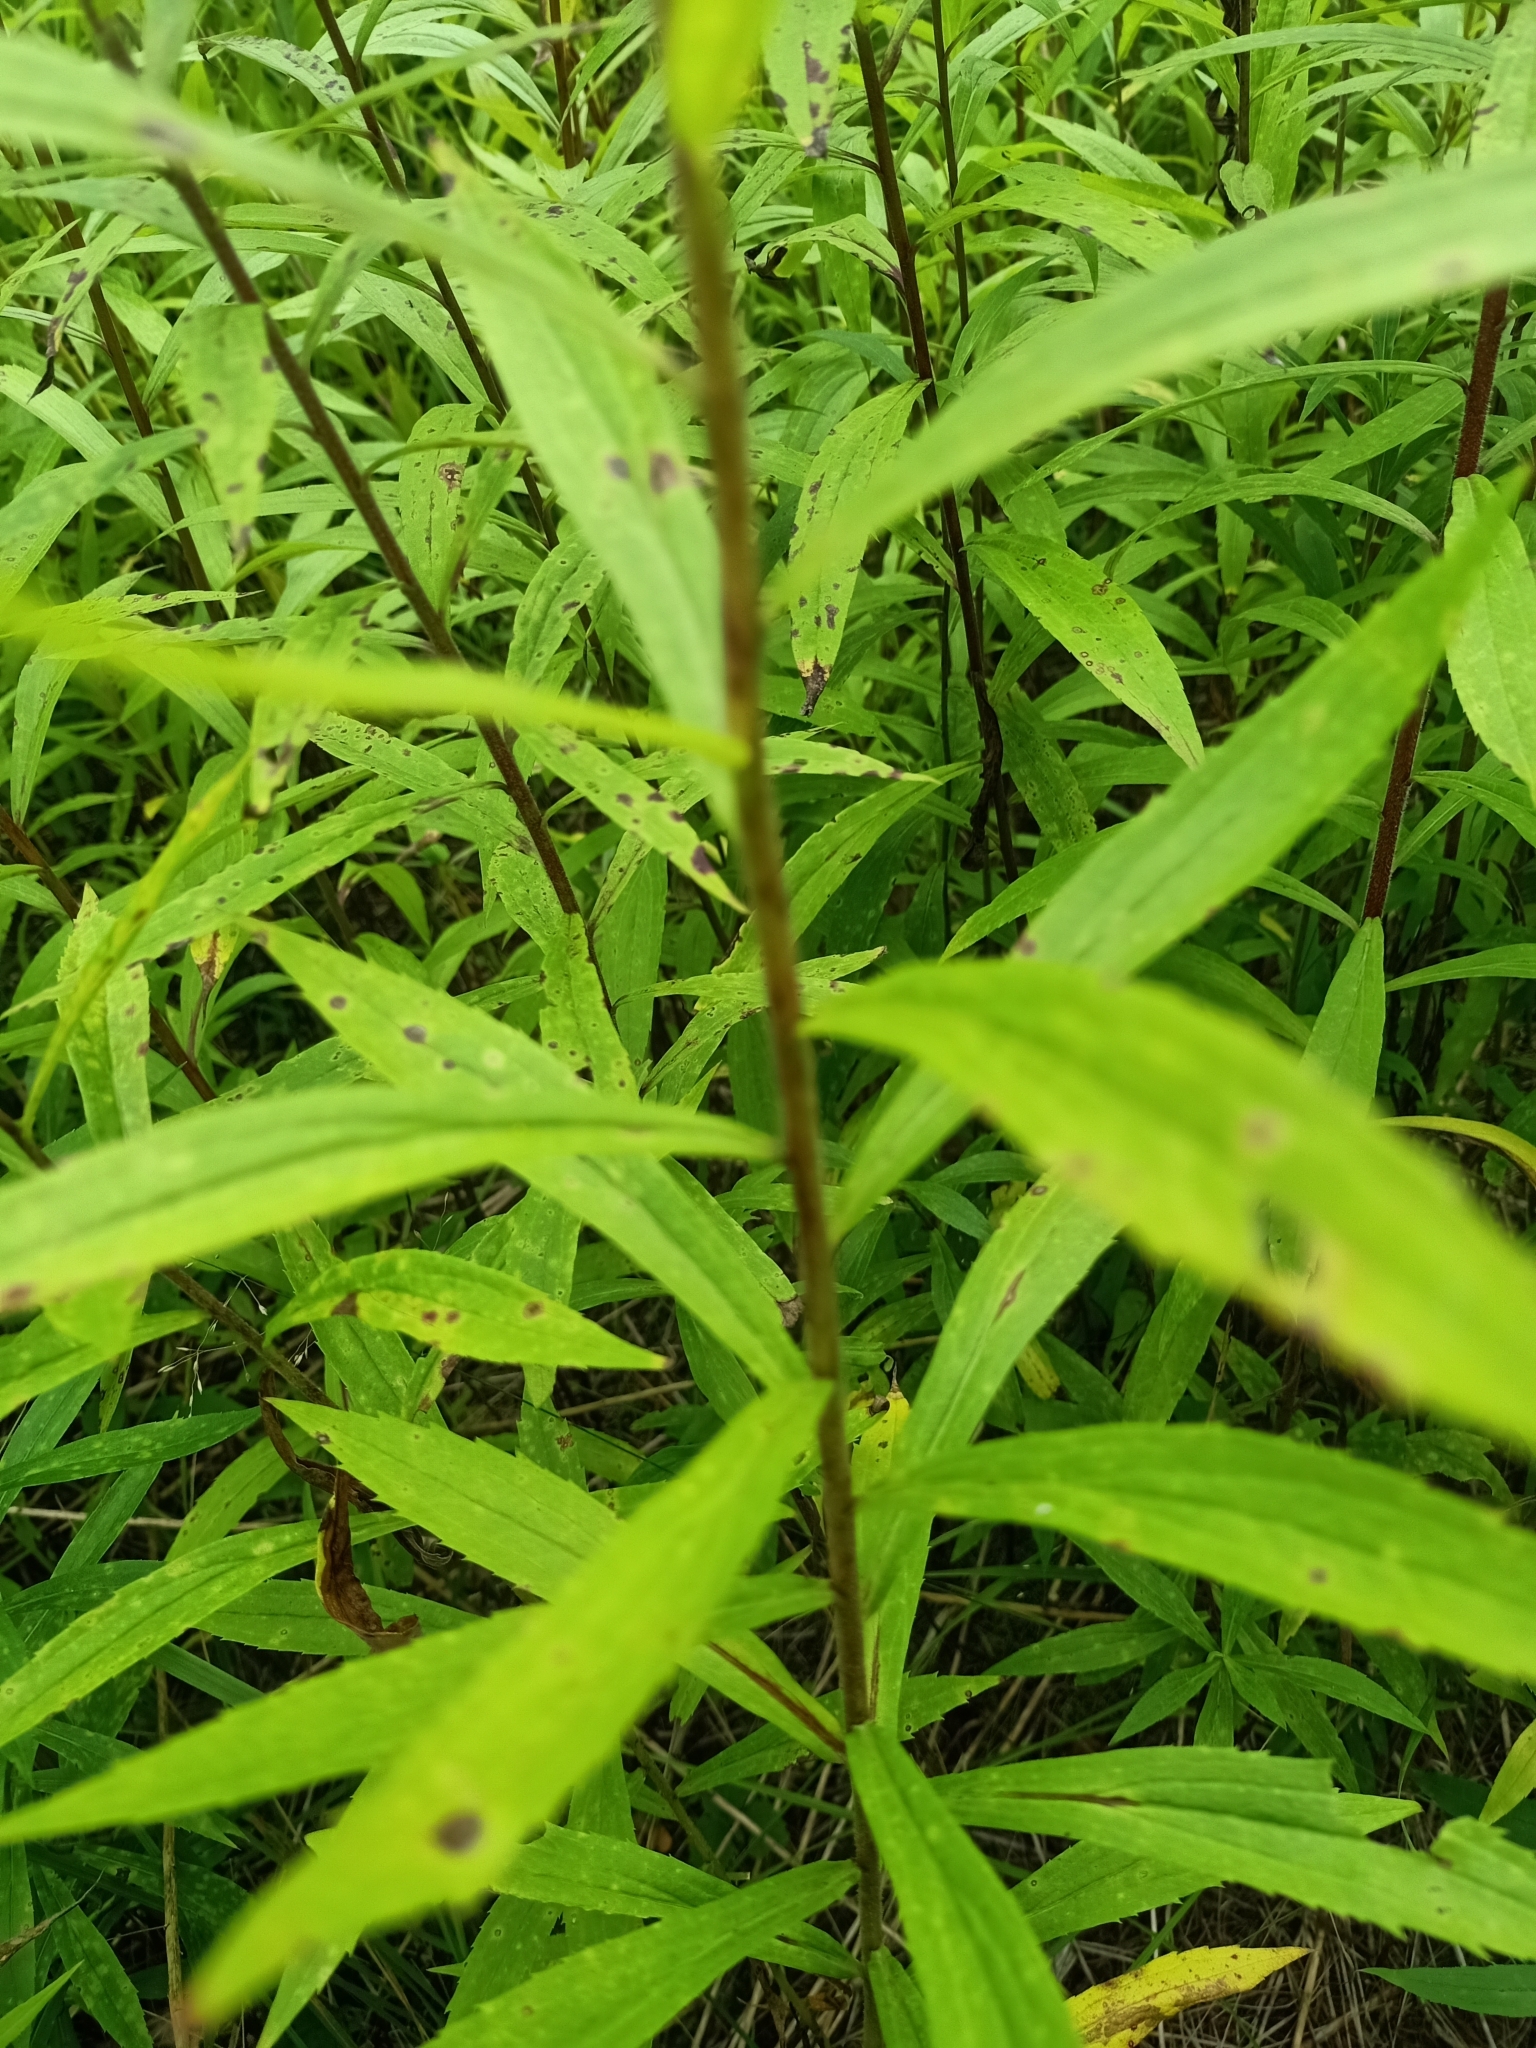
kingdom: Plantae
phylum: Tracheophyta
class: Magnoliopsida
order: Asterales
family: Asteraceae
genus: Solidago
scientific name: Solidago canadensis
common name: Canada goldenrod
